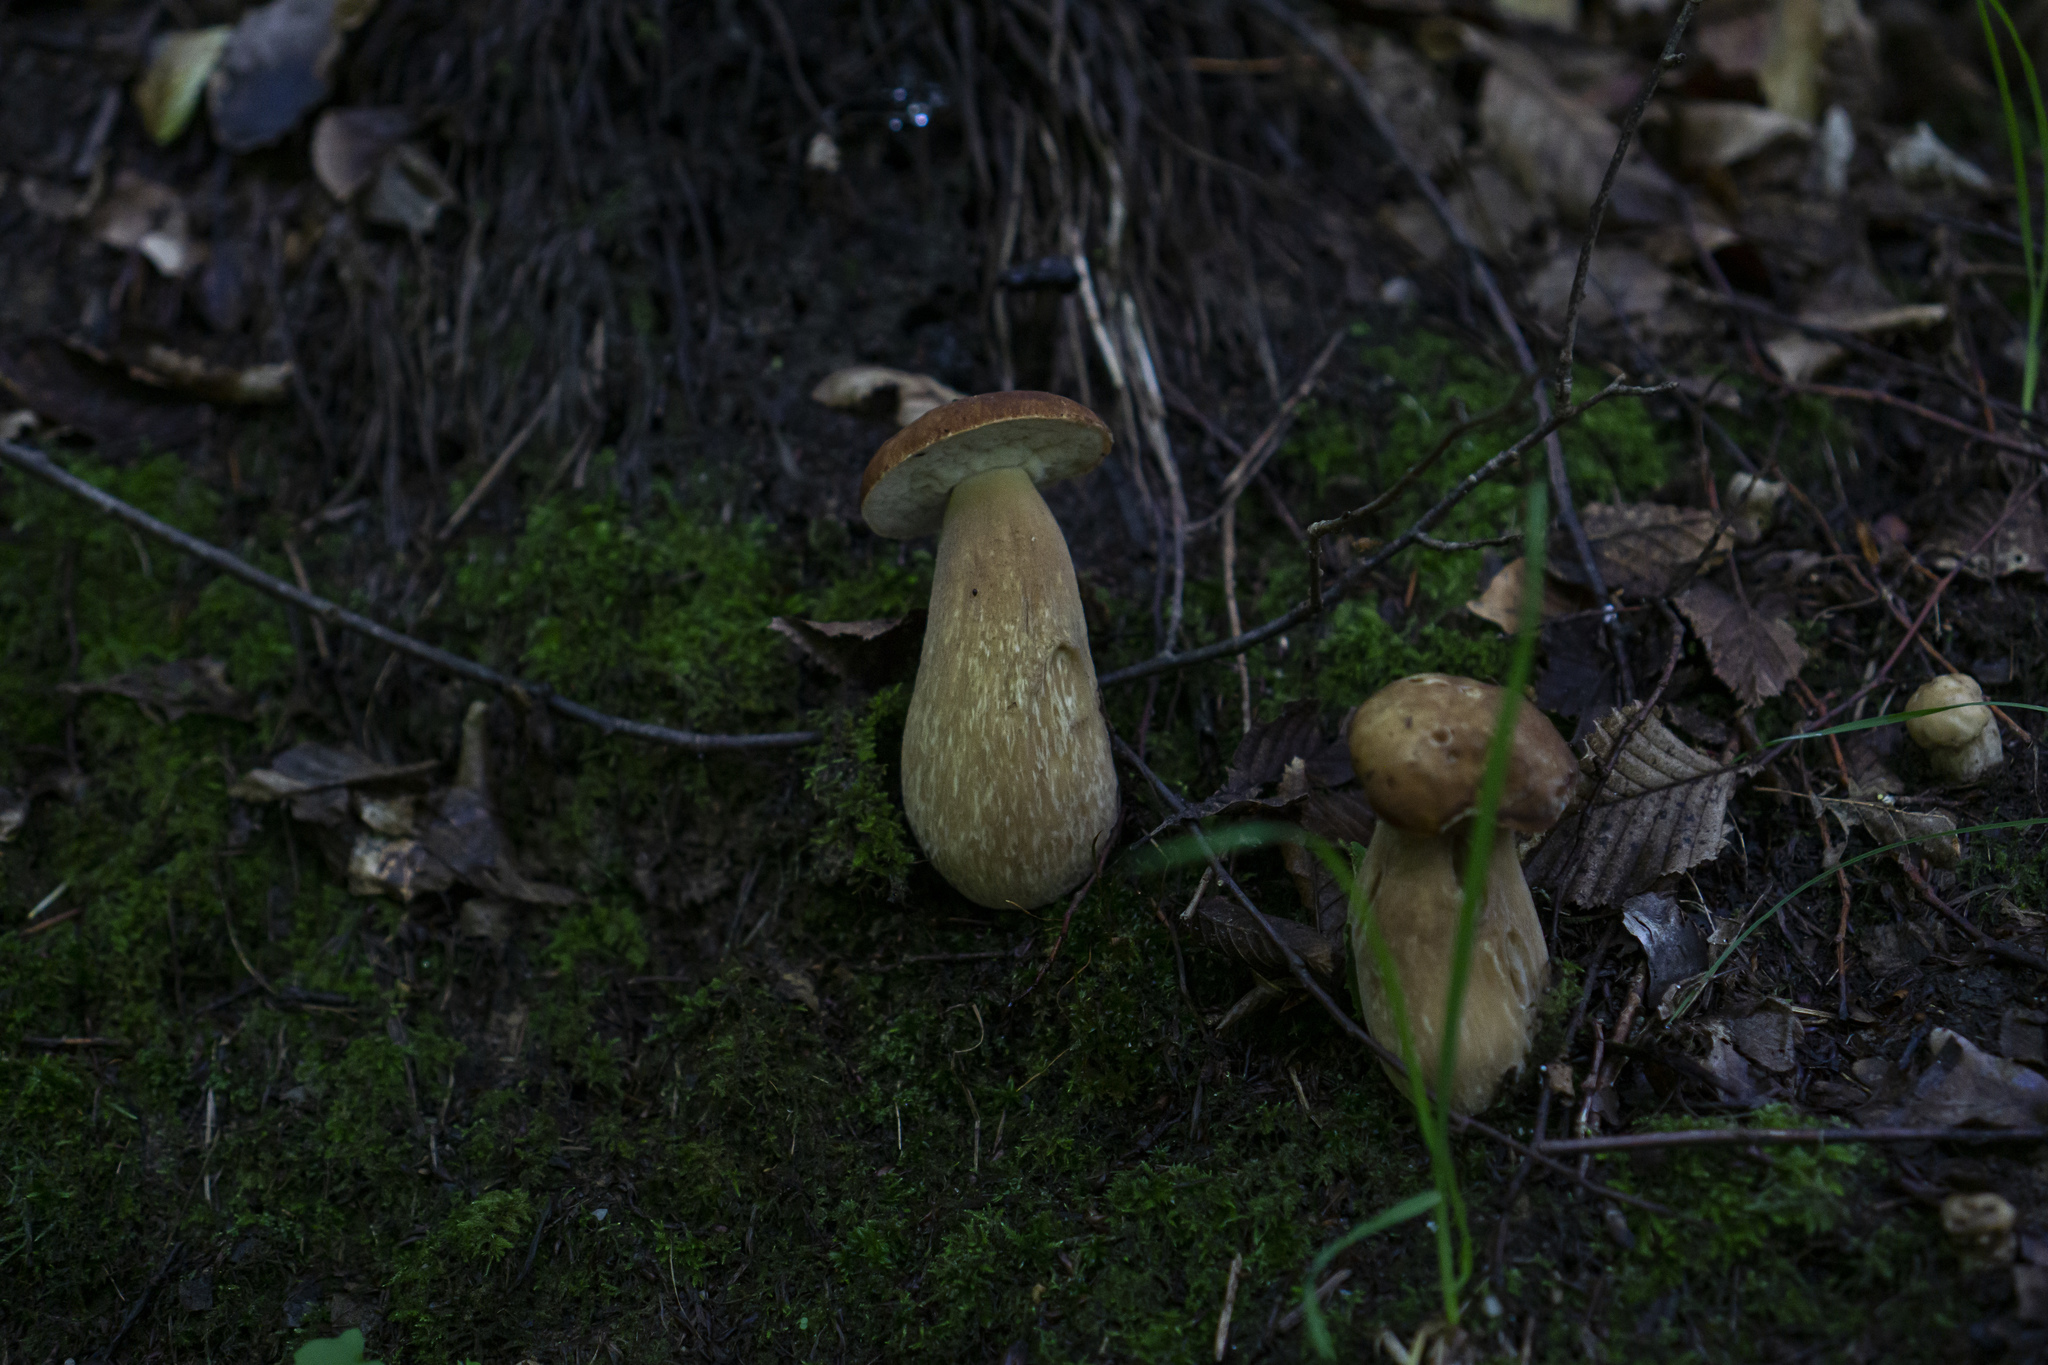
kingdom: Fungi
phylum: Basidiomycota
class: Agaricomycetes
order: Boletales
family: Boletaceae
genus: Boletus
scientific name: Boletus reticulatus
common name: Summer bolete
